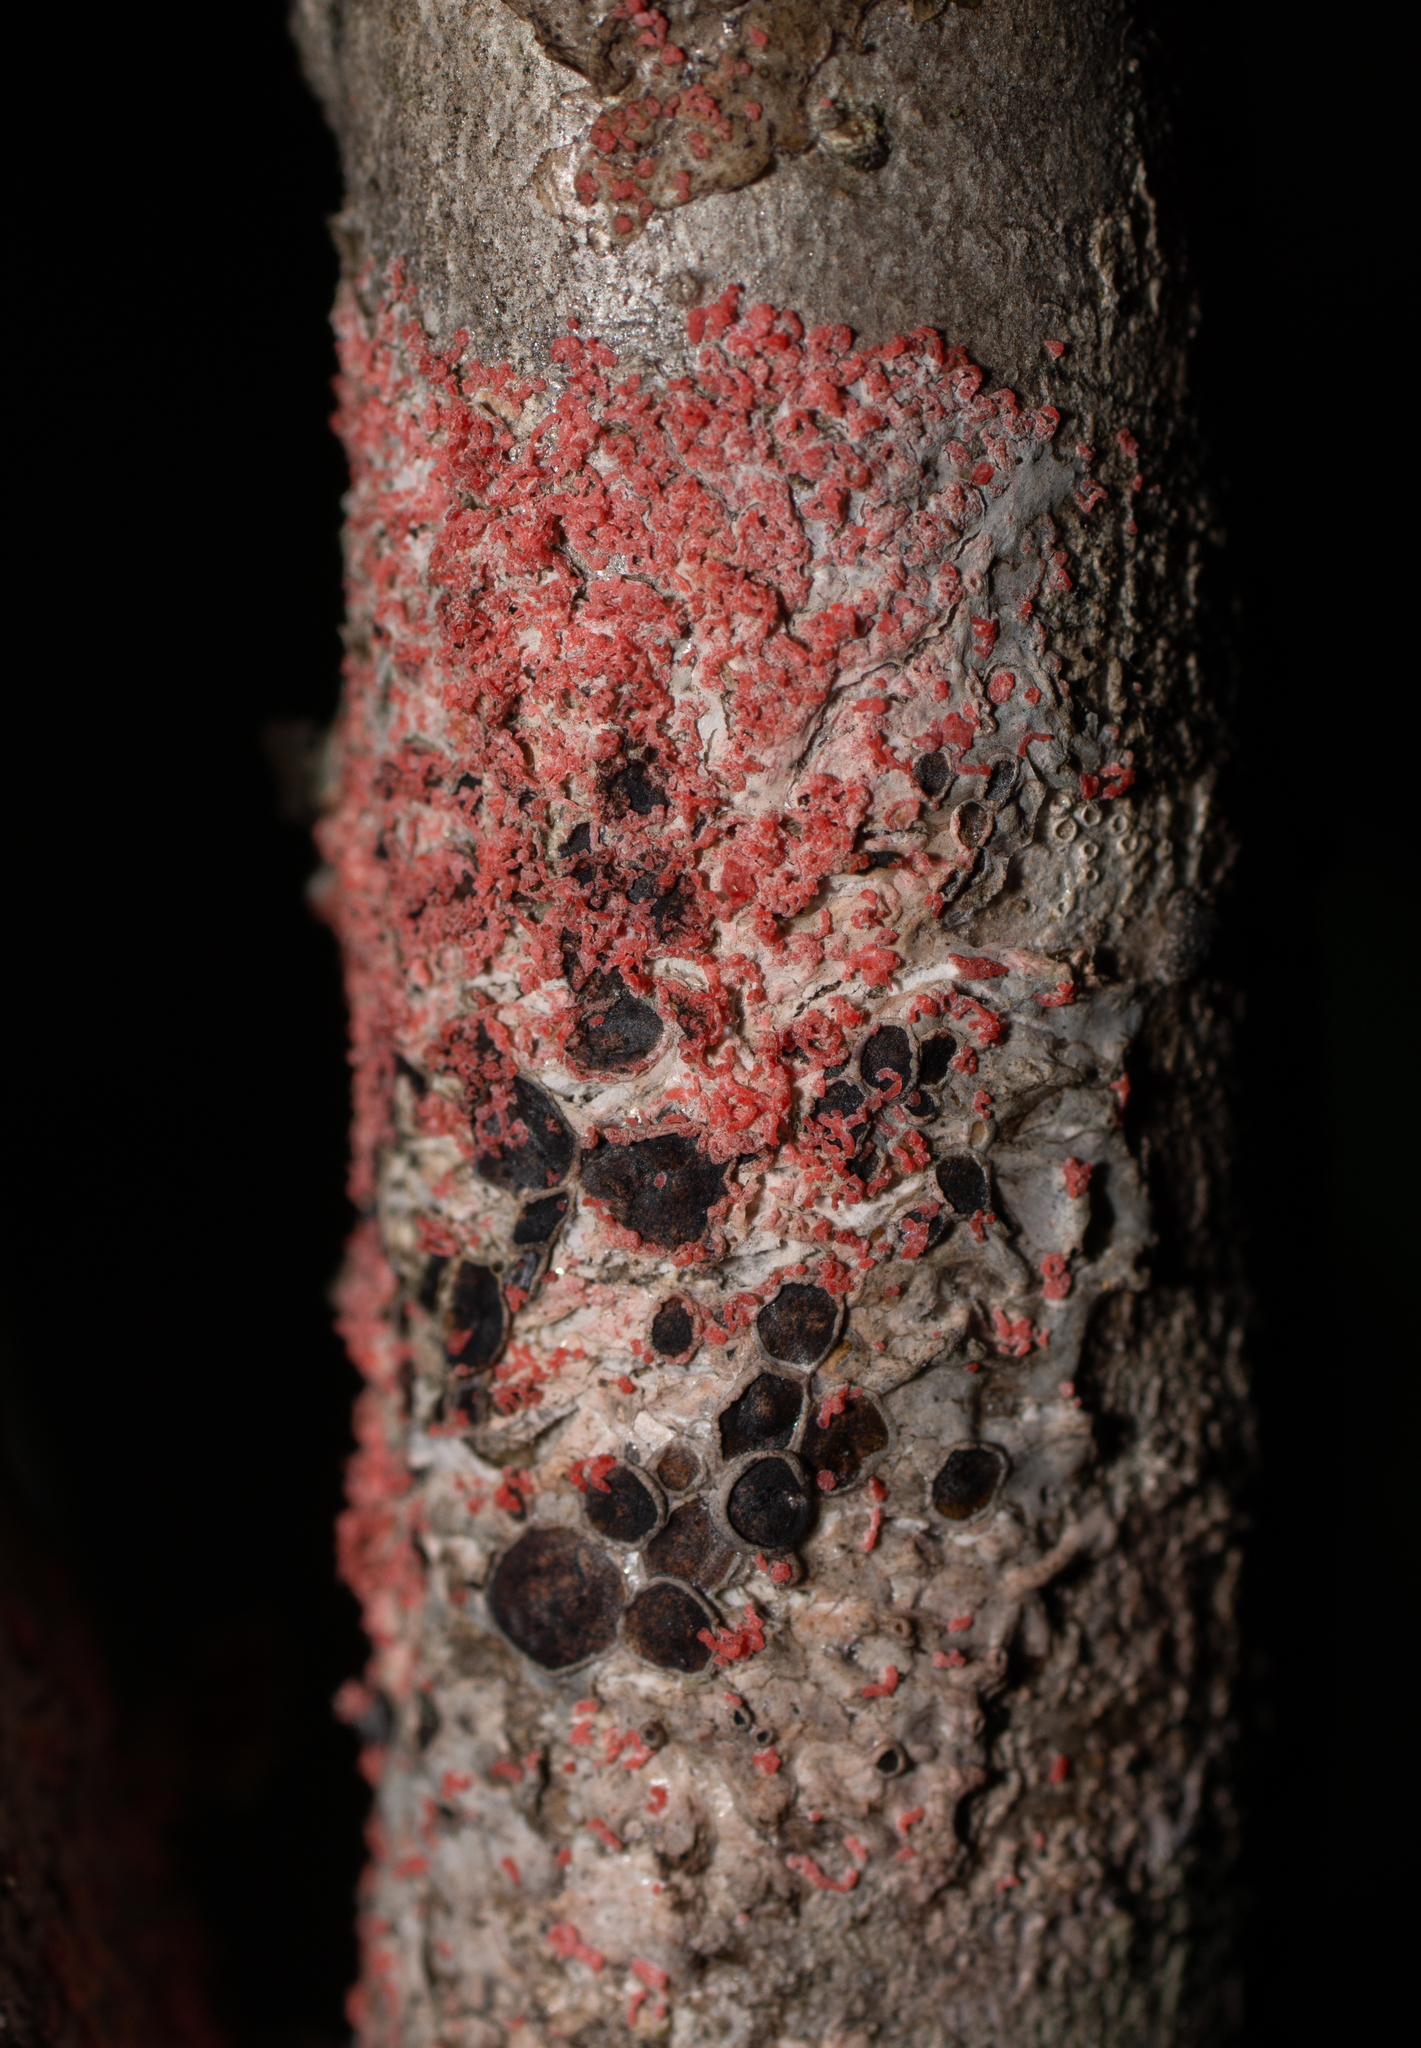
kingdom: Fungi
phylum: Basidiomycota
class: Agaricomycetes
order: Corticiales
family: Corticiaceae
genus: Marchandiomyces
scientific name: Marchandiomyces corallinus
